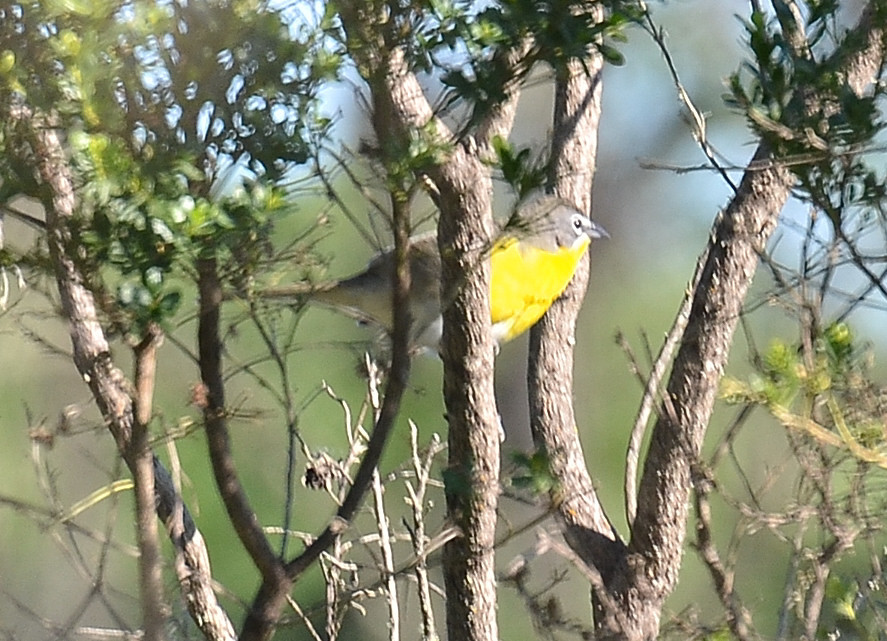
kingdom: Animalia
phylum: Chordata
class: Aves
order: Passeriformes
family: Parulidae
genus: Icteria
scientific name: Icteria virens
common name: Yellow-breasted chat
